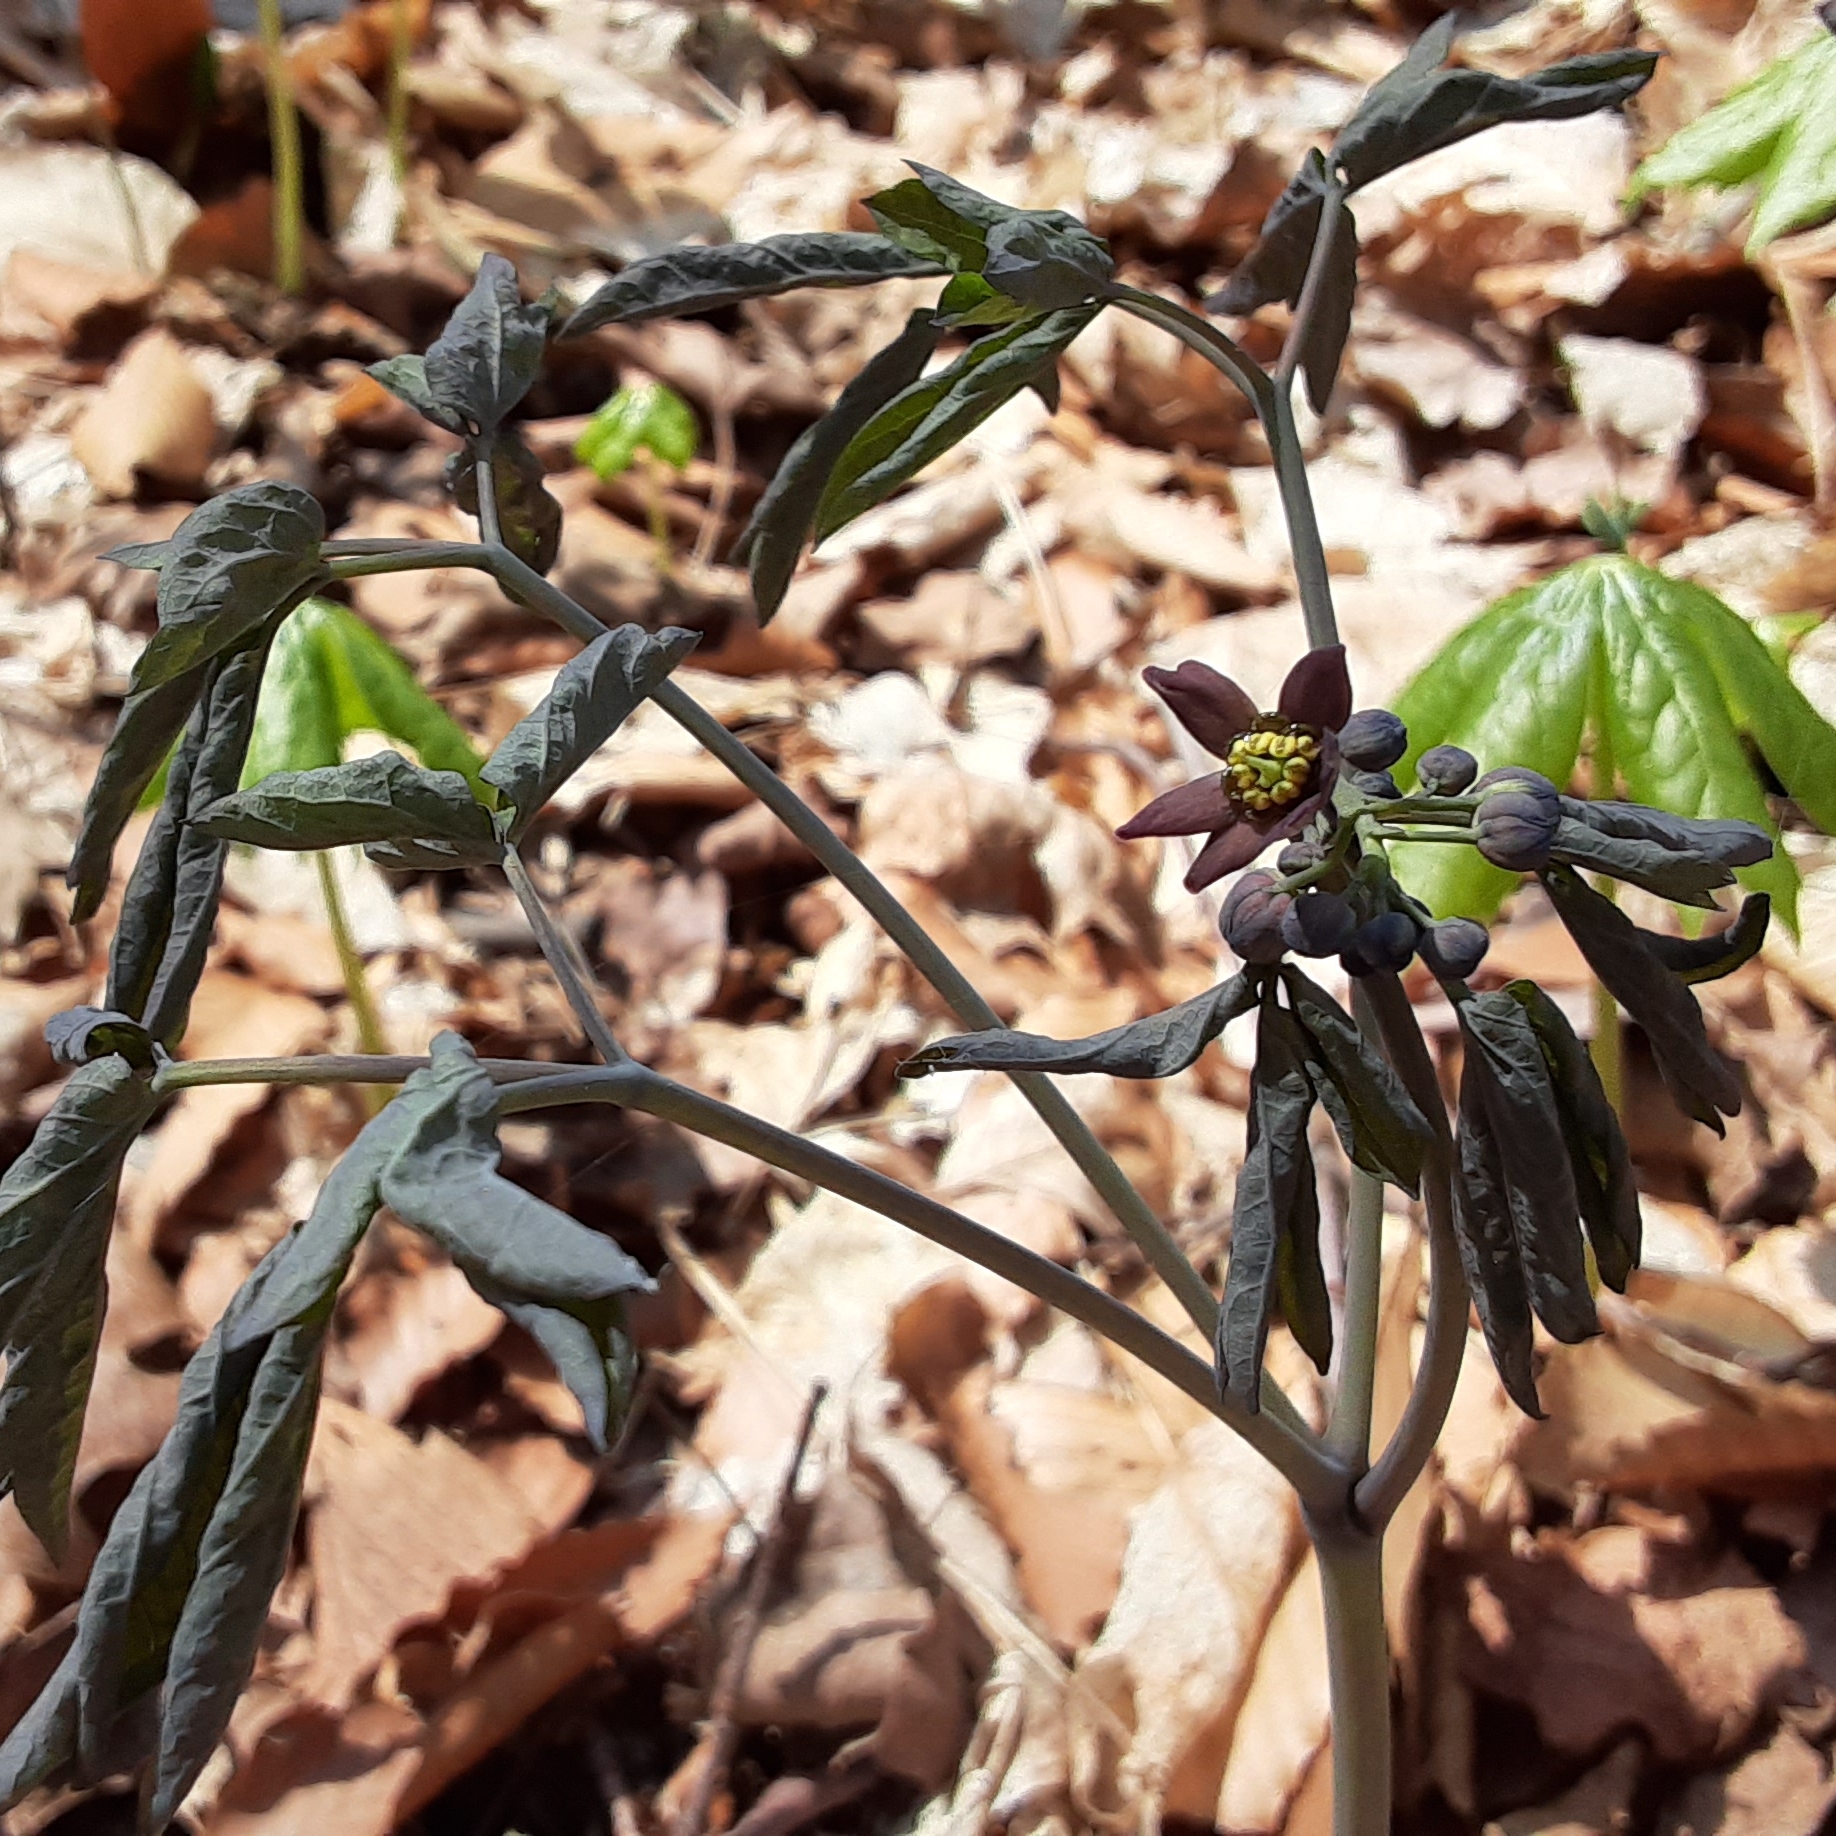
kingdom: Plantae
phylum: Tracheophyta
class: Magnoliopsida
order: Ranunculales
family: Berberidaceae
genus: Caulophyllum
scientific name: Caulophyllum giganteum
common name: Blue cohosh
